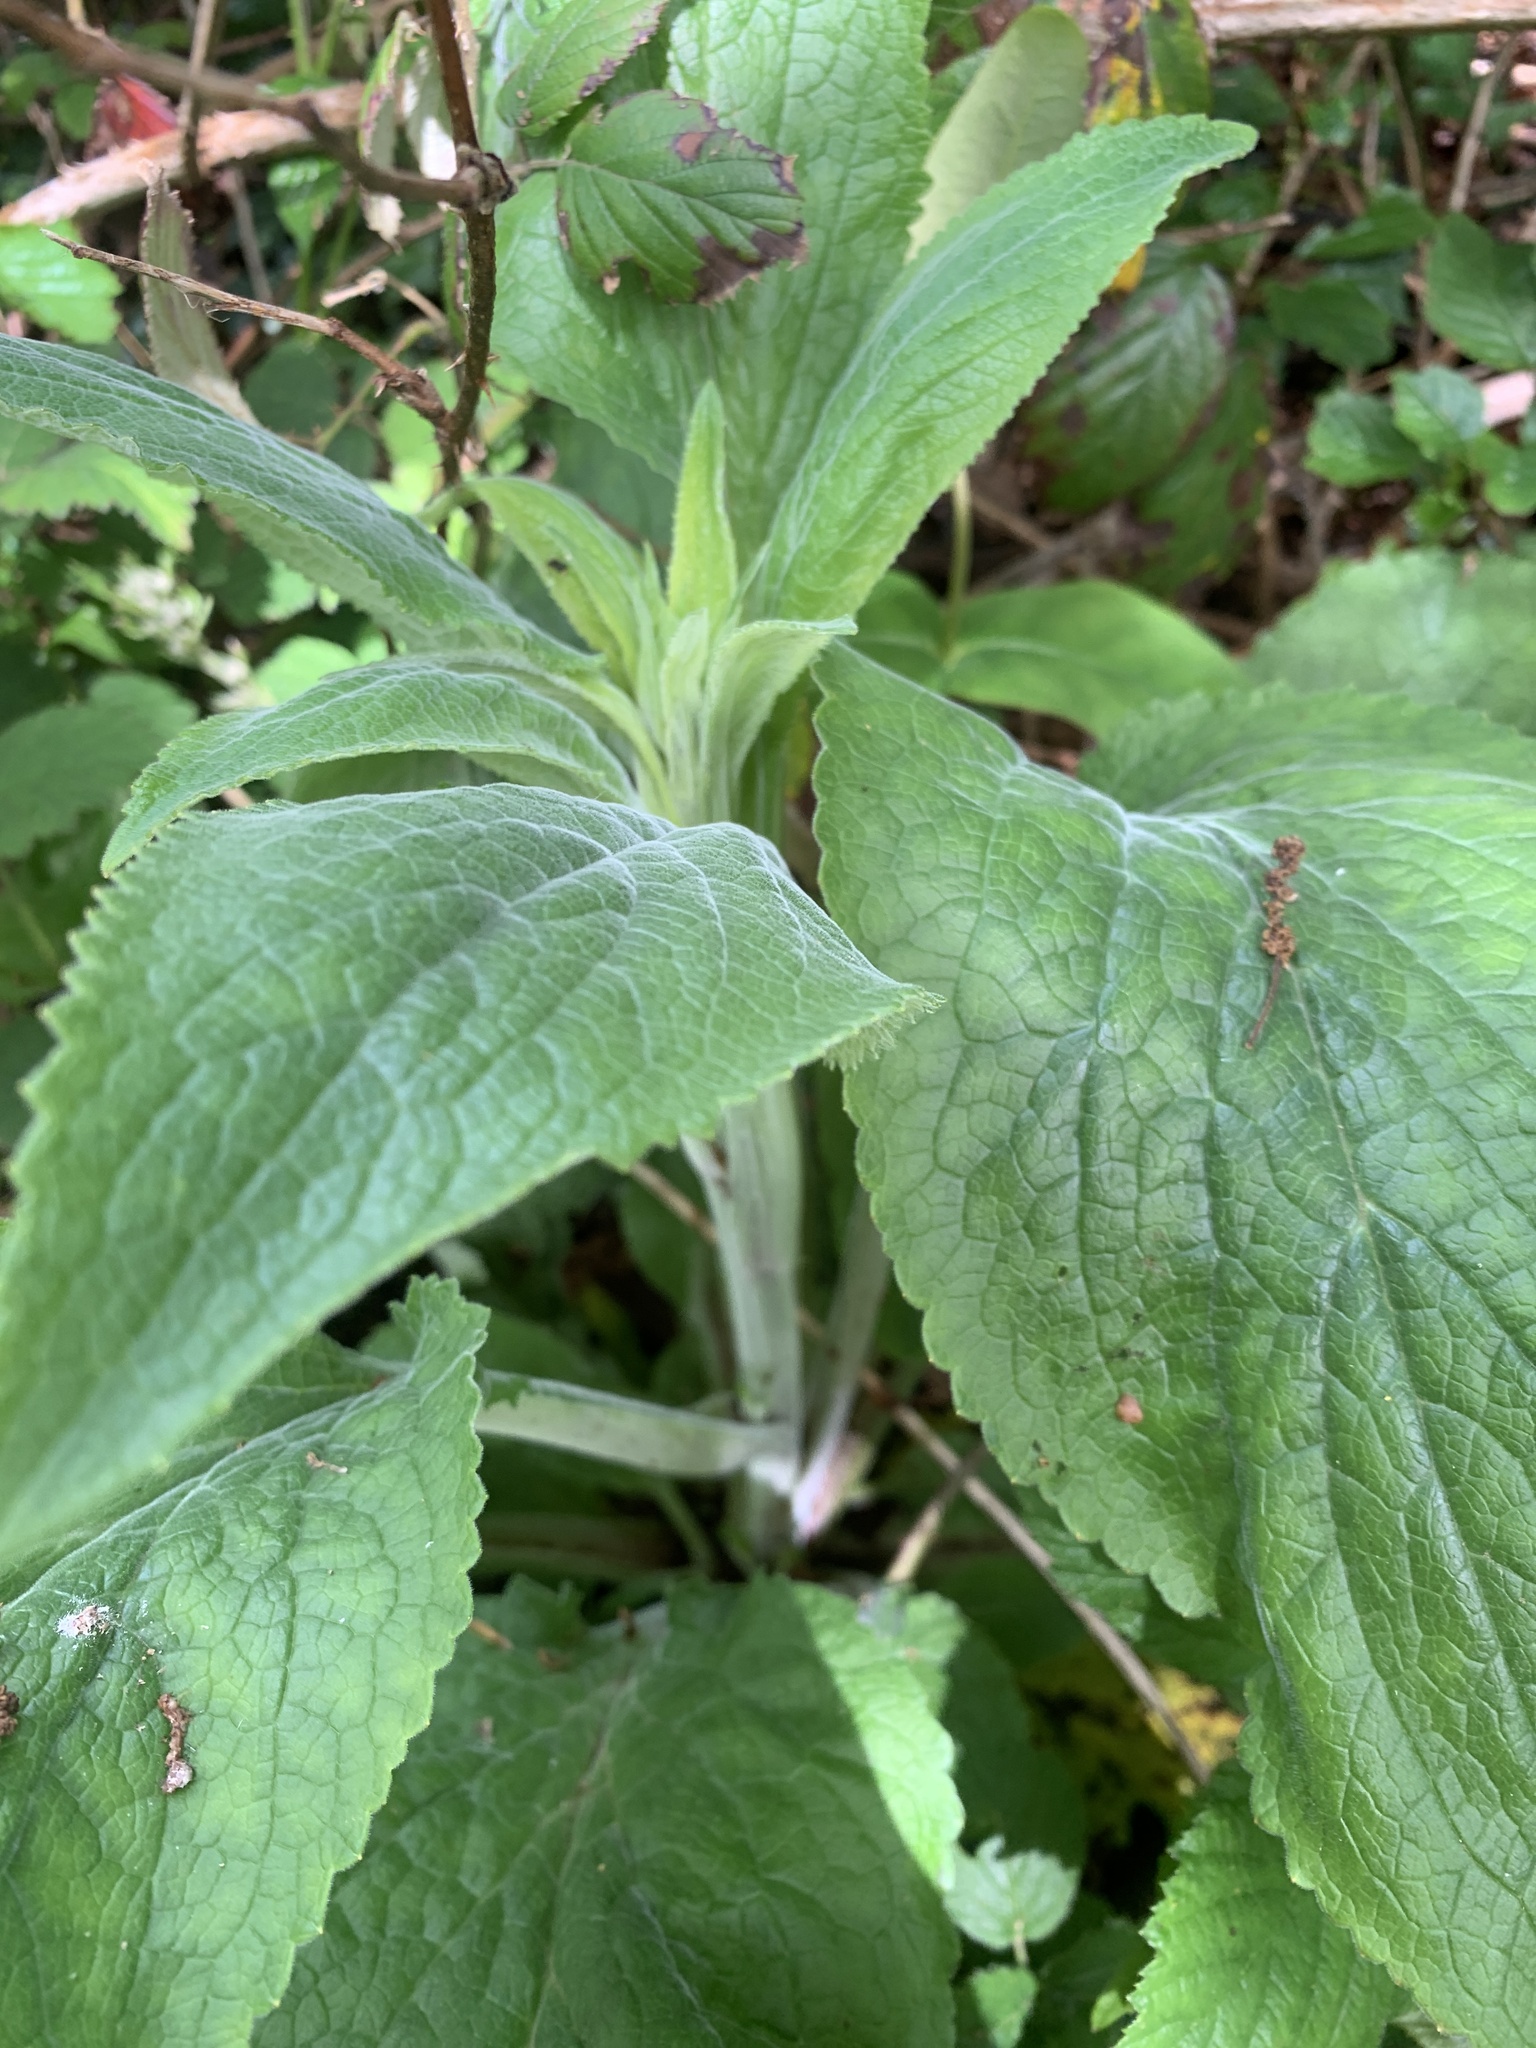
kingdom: Plantae
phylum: Tracheophyta
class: Magnoliopsida
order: Lamiales
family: Plantaginaceae
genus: Digitalis
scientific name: Digitalis purpurea
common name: Foxglove
